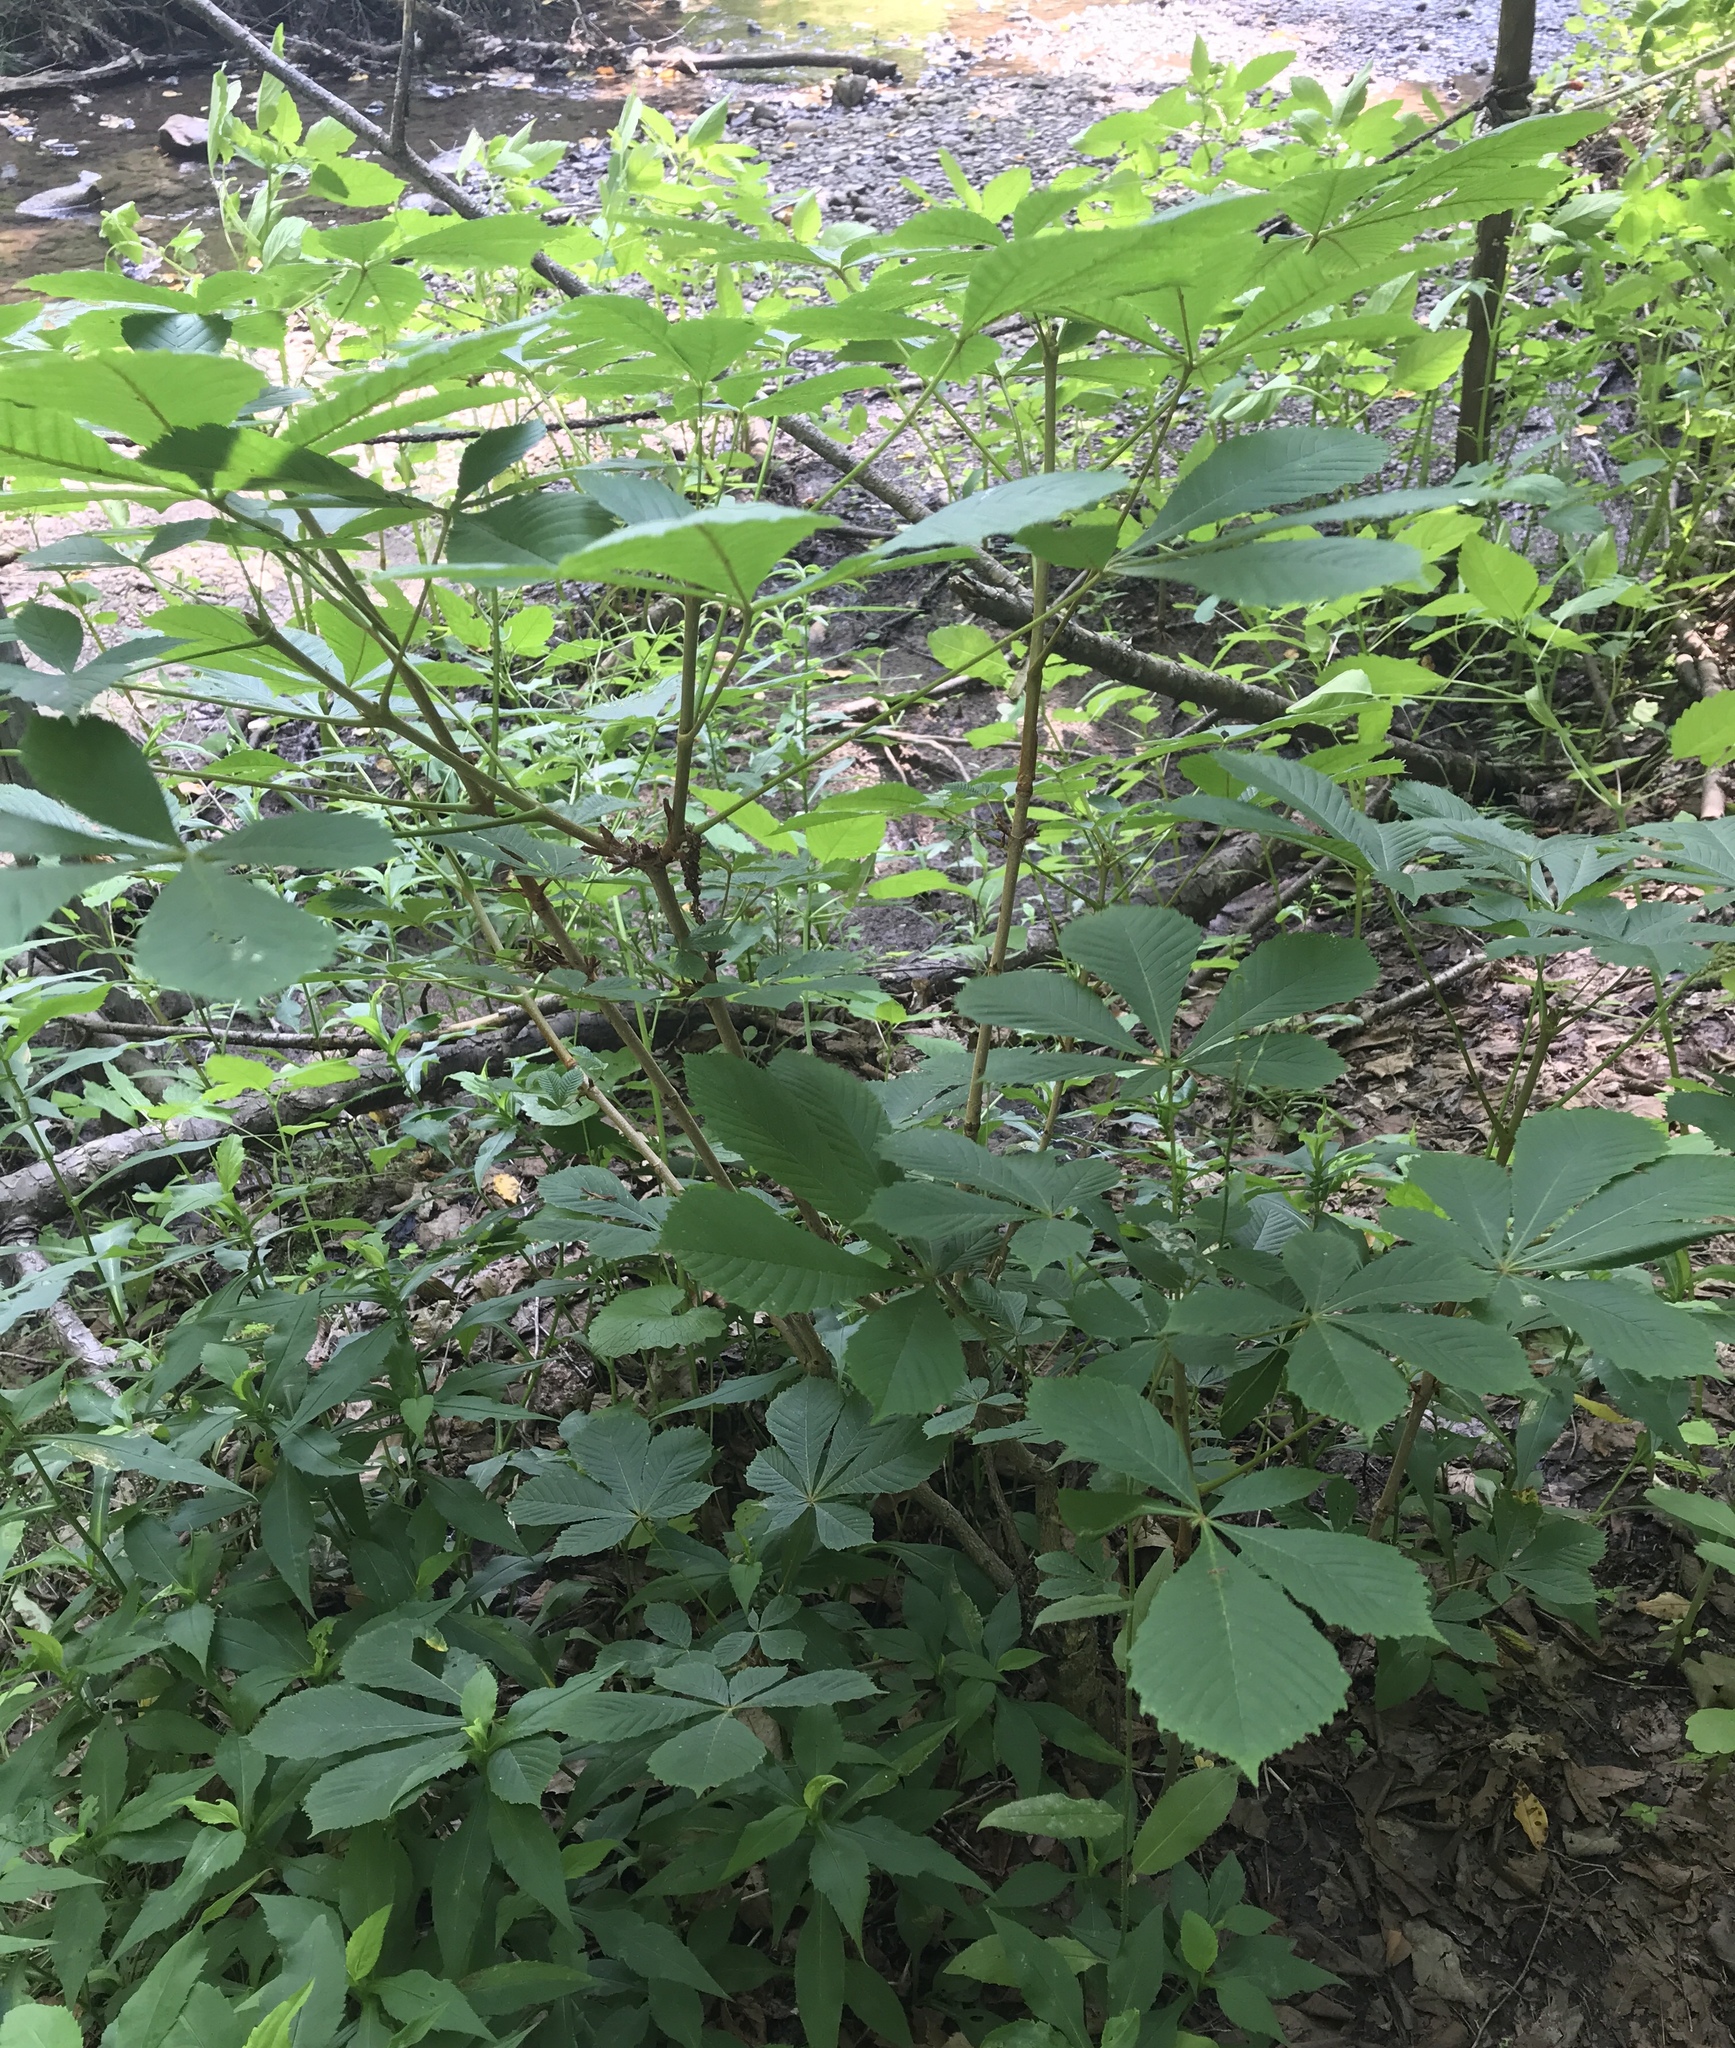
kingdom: Plantae
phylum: Tracheophyta
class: Magnoliopsida
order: Sapindales
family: Sapindaceae
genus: Aesculus
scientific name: Aesculus hippocastanum
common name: Horse-chestnut
